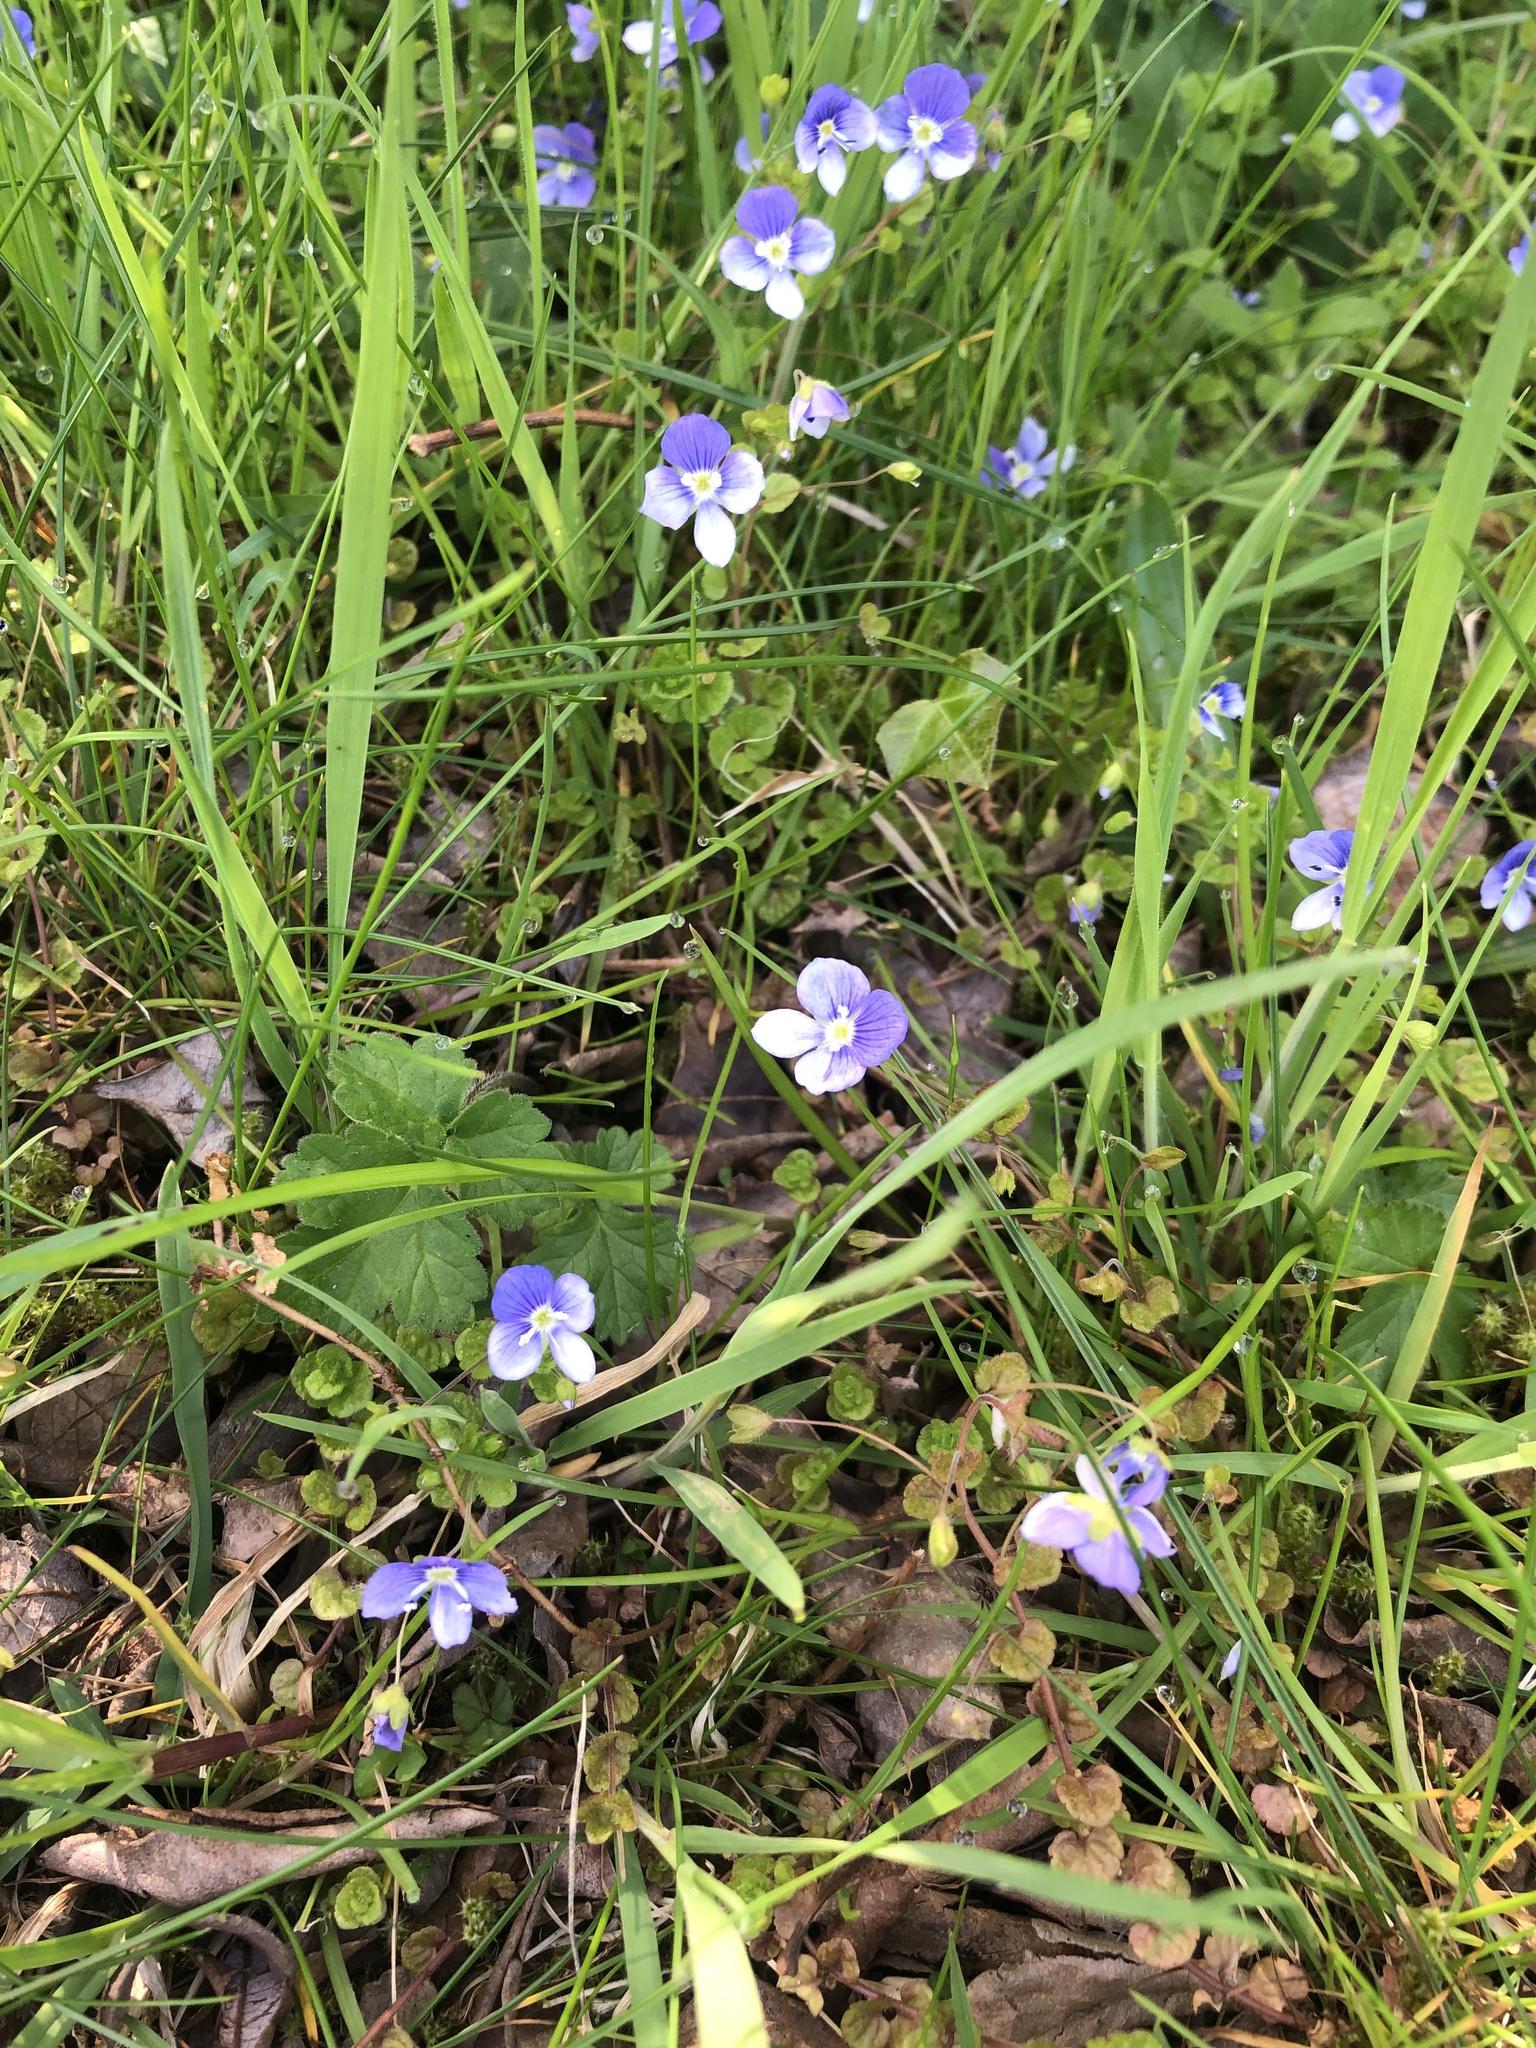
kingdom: Plantae
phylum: Tracheophyta
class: Magnoliopsida
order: Lamiales
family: Plantaginaceae
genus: Veronica
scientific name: Veronica filiformis
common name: Slender speedwell
